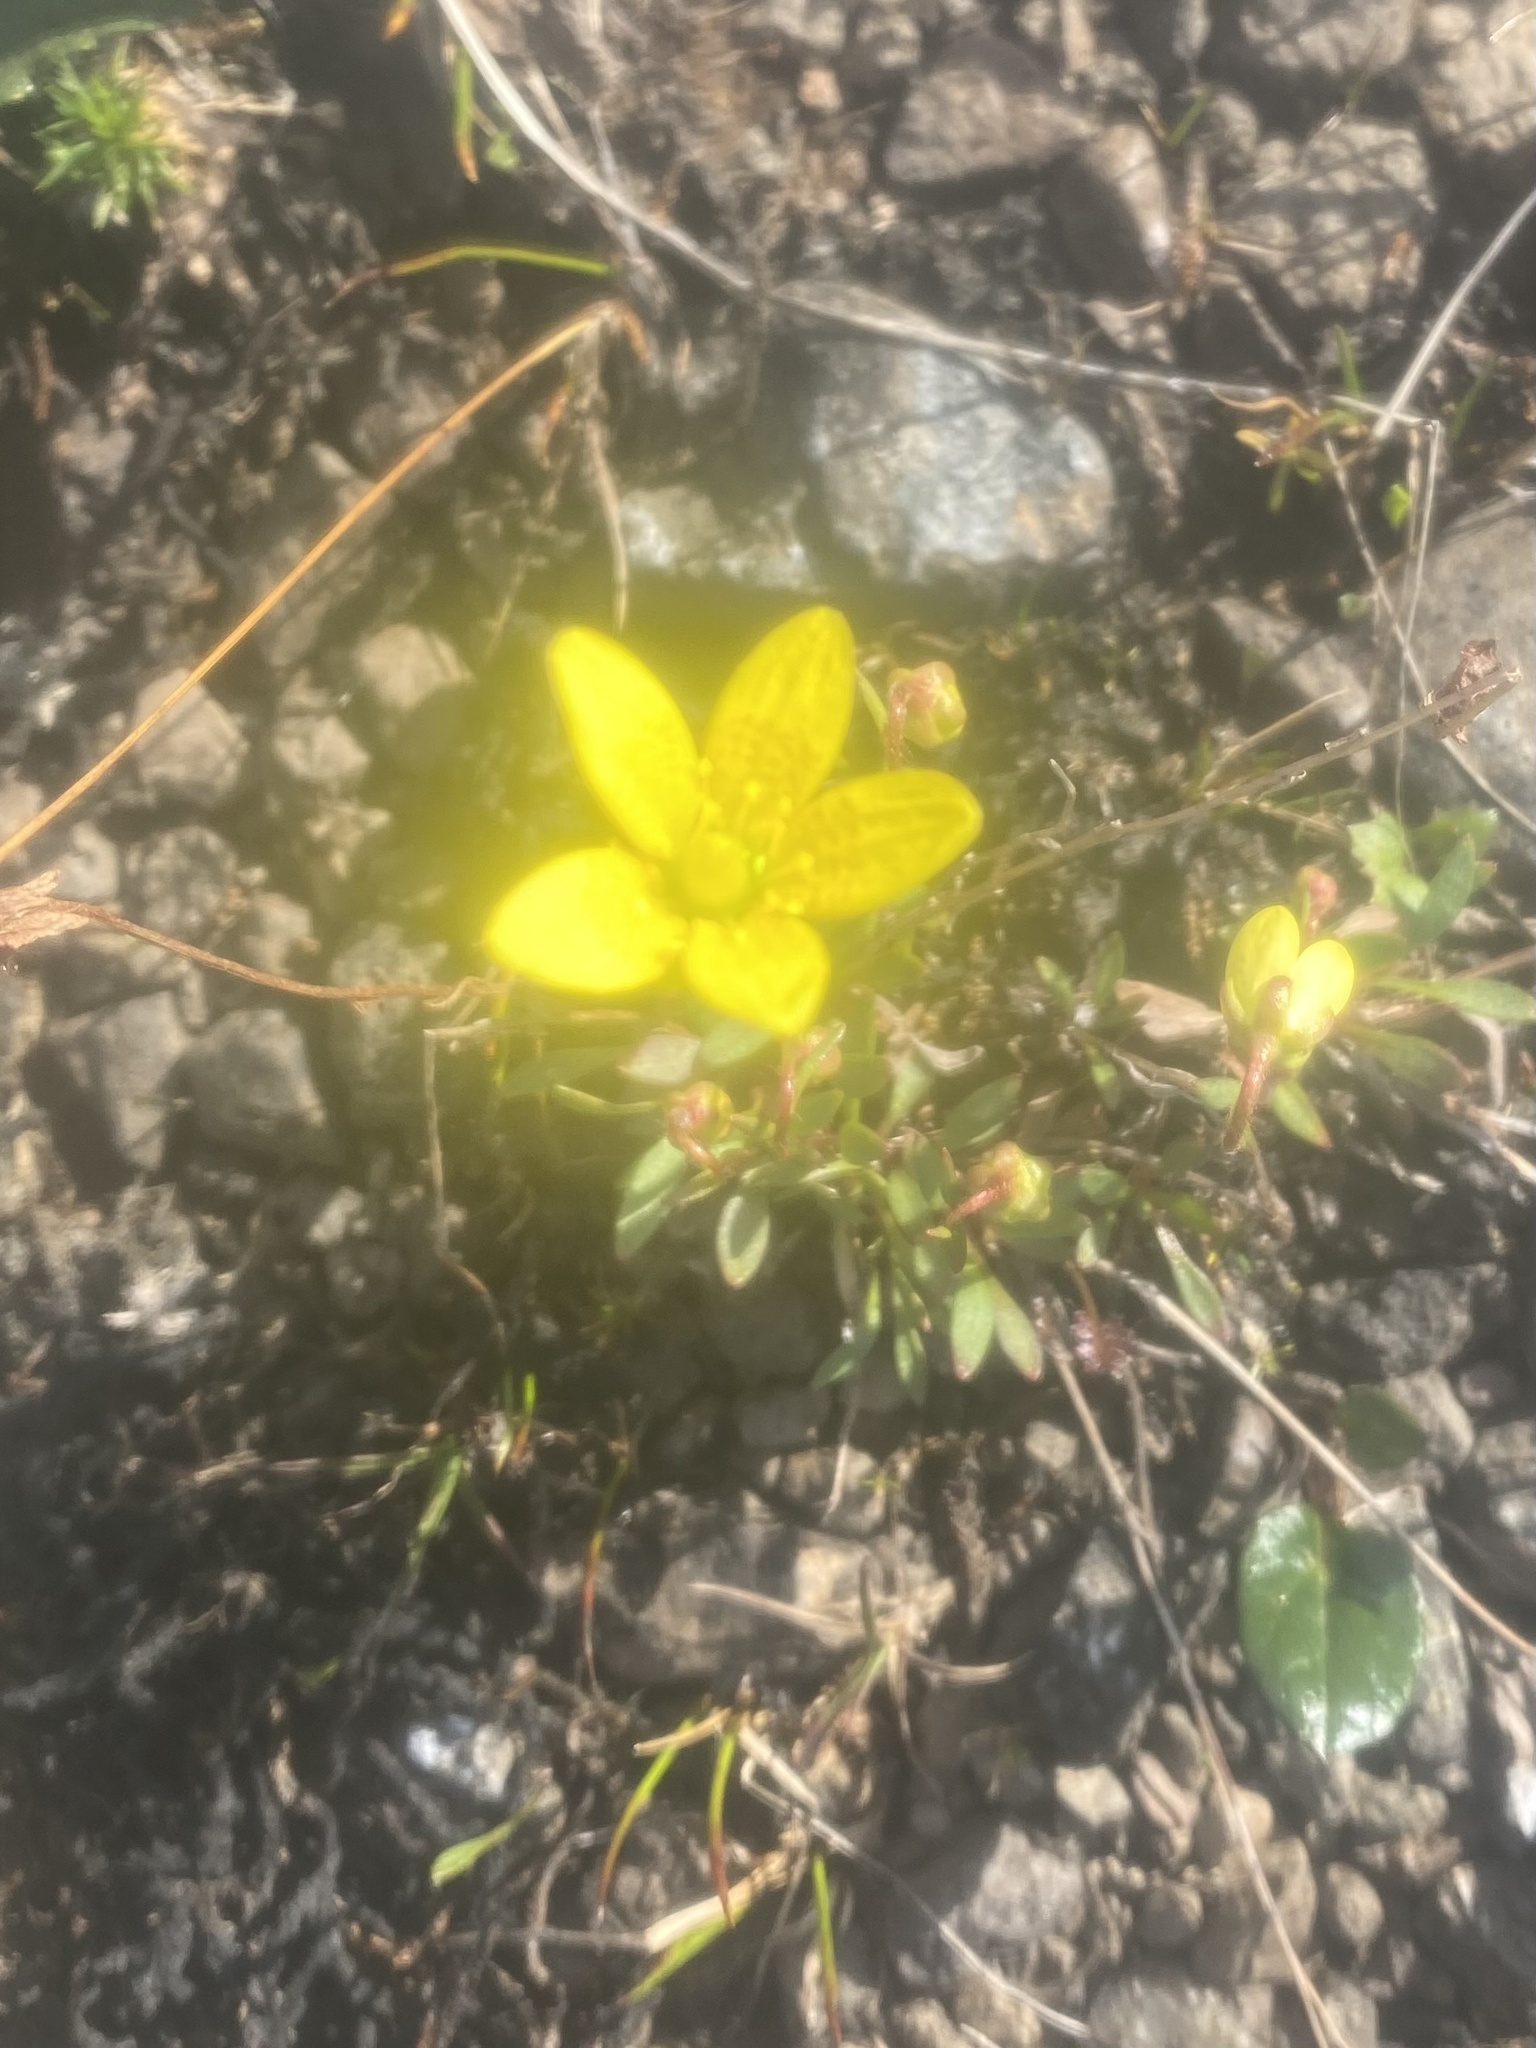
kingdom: Plantae
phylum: Tracheophyta
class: Magnoliopsida
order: Saxifragales
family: Saxifragaceae
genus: Saxifraga
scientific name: Saxifraga hirculus
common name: Yellow marsh saxifrage
